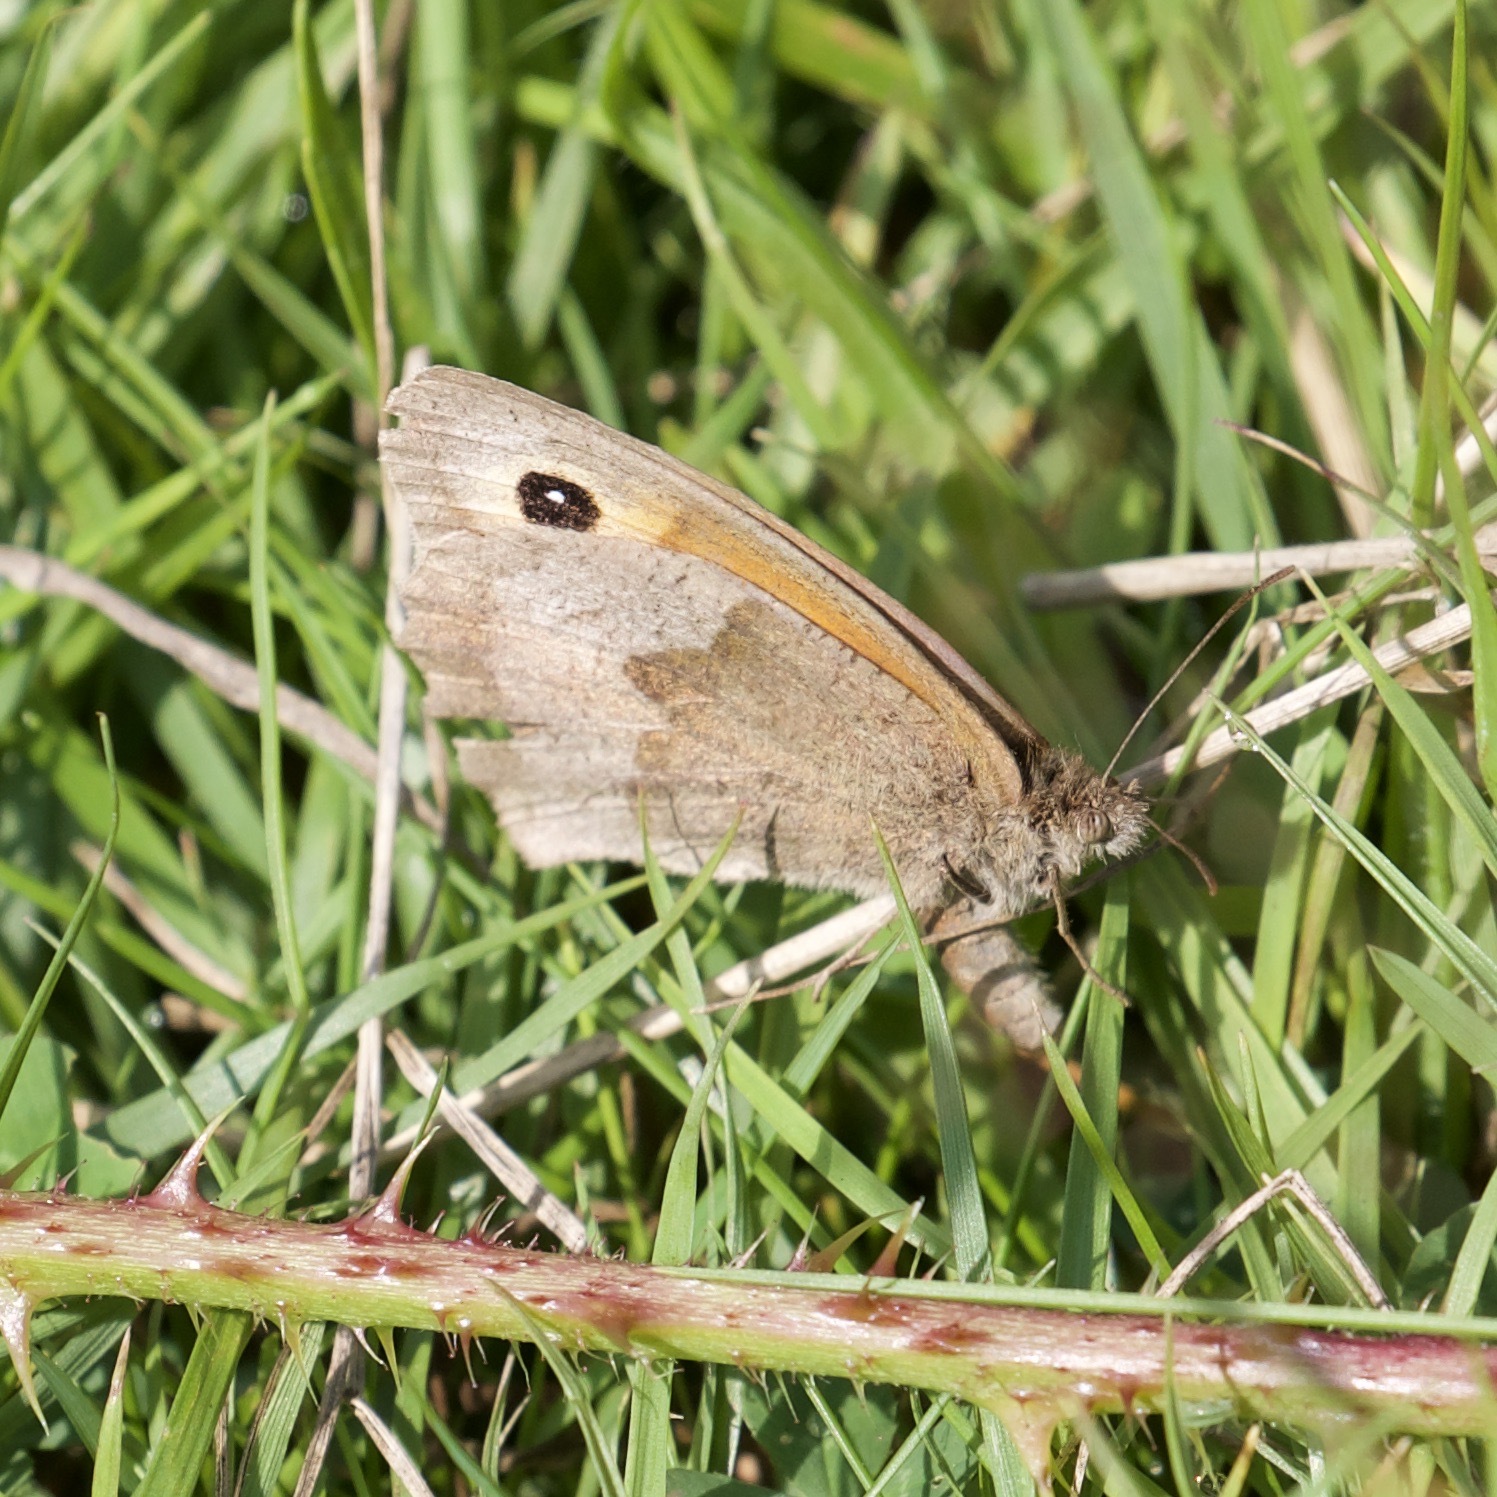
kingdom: Animalia
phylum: Arthropoda
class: Insecta
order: Lepidoptera
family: Nymphalidae
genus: Maniola
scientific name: Maniola jurtina
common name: Meadow brown
